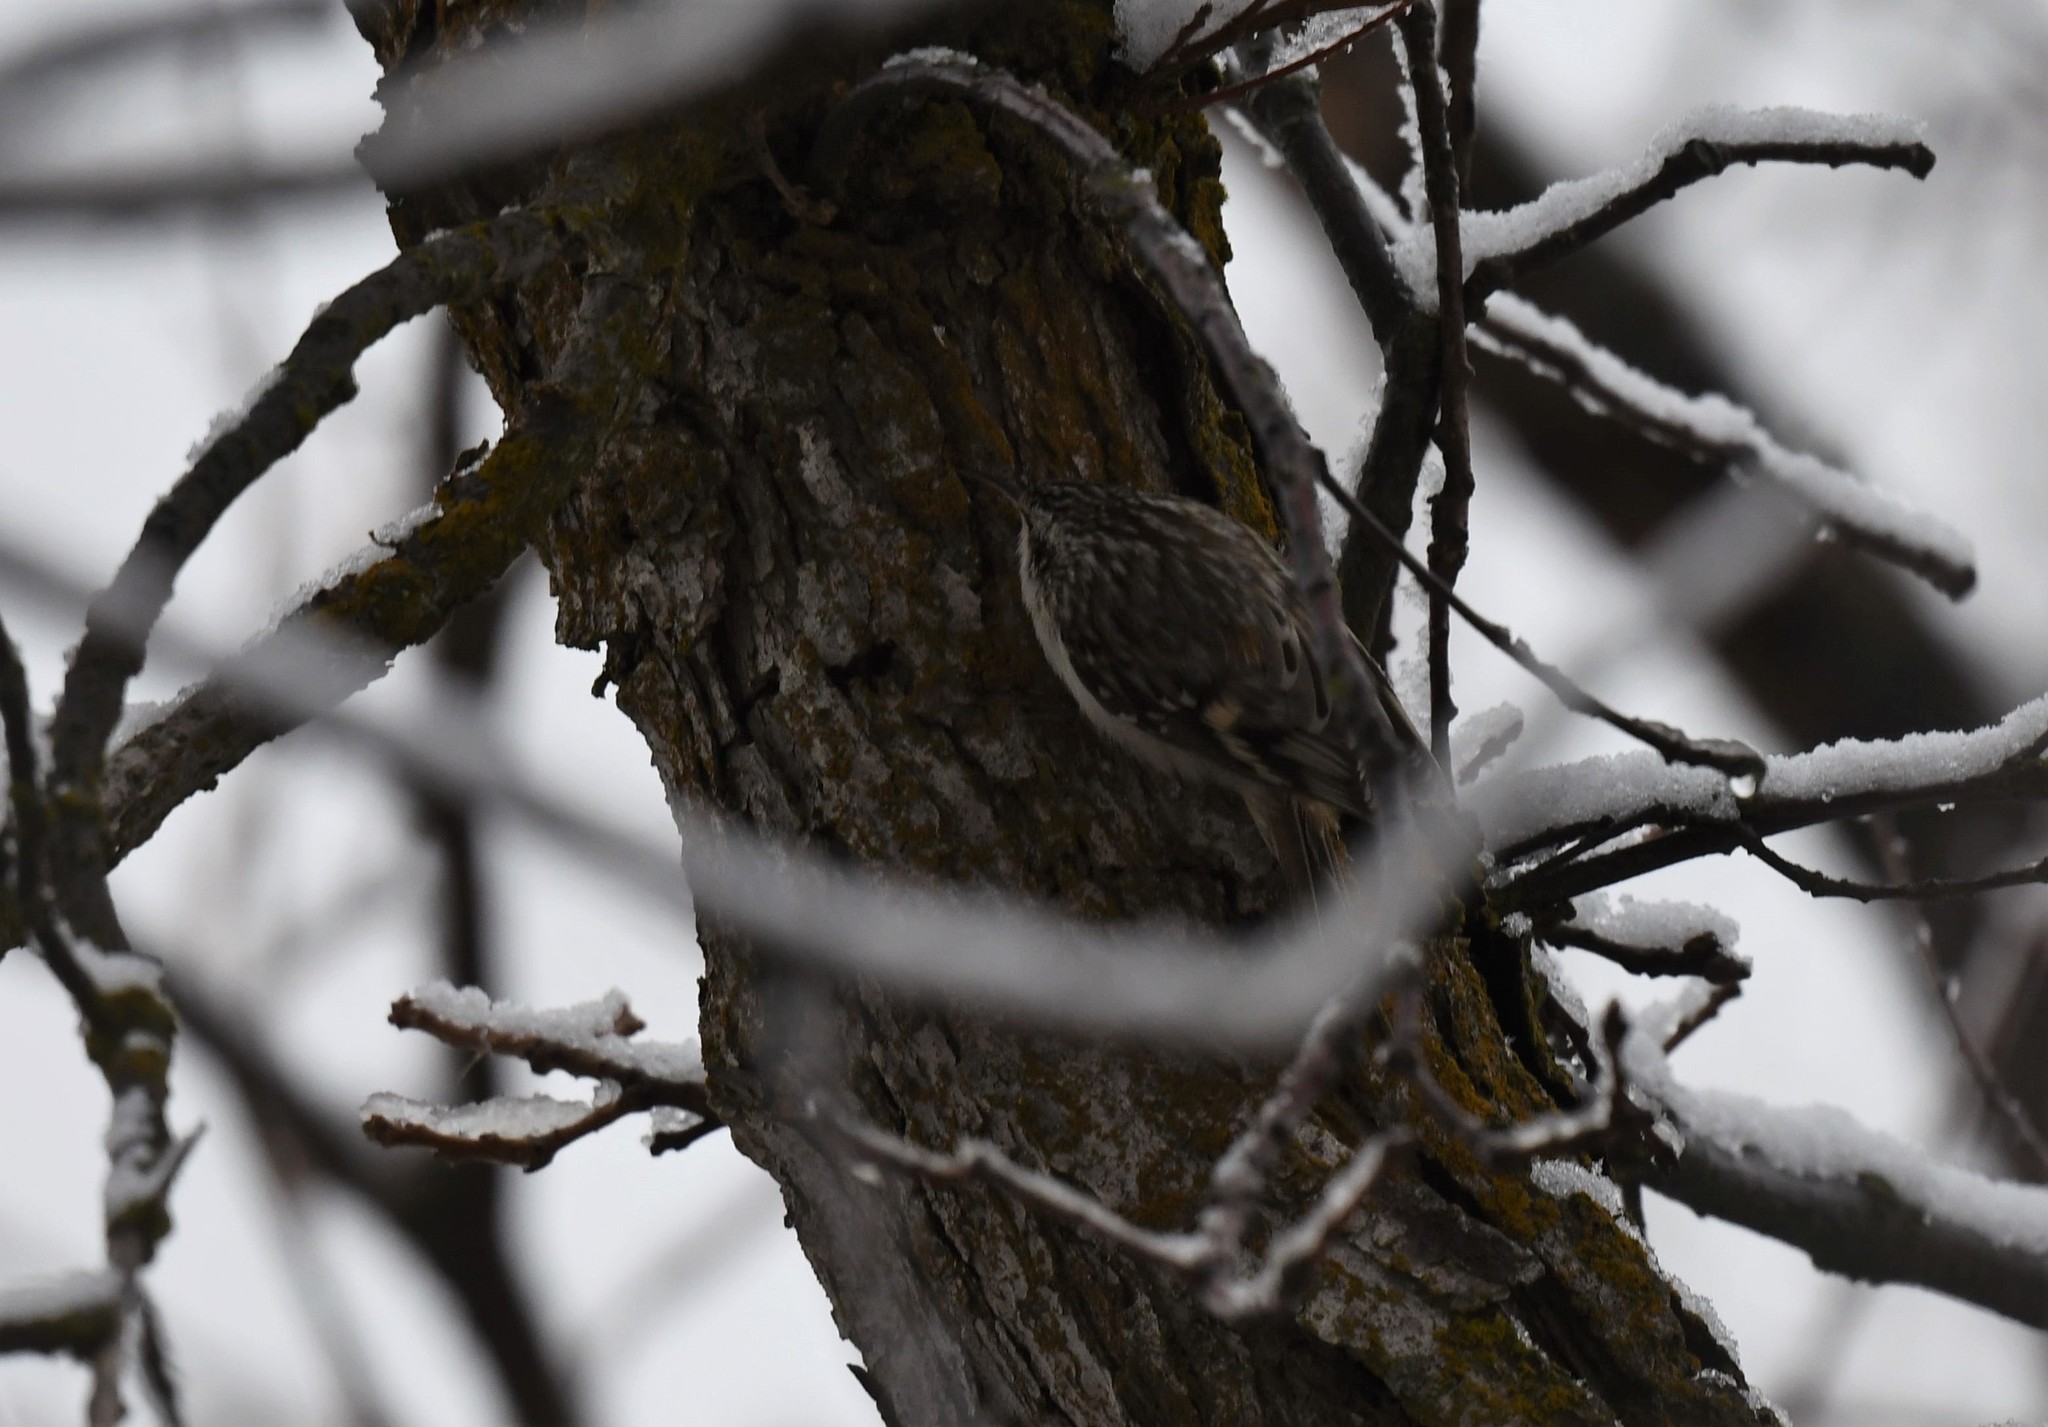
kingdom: Animalia
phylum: Chordata
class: Aves
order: Passeriformes
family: Certhiidae
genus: Certhia
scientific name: Certhia americana
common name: Brown creeper
